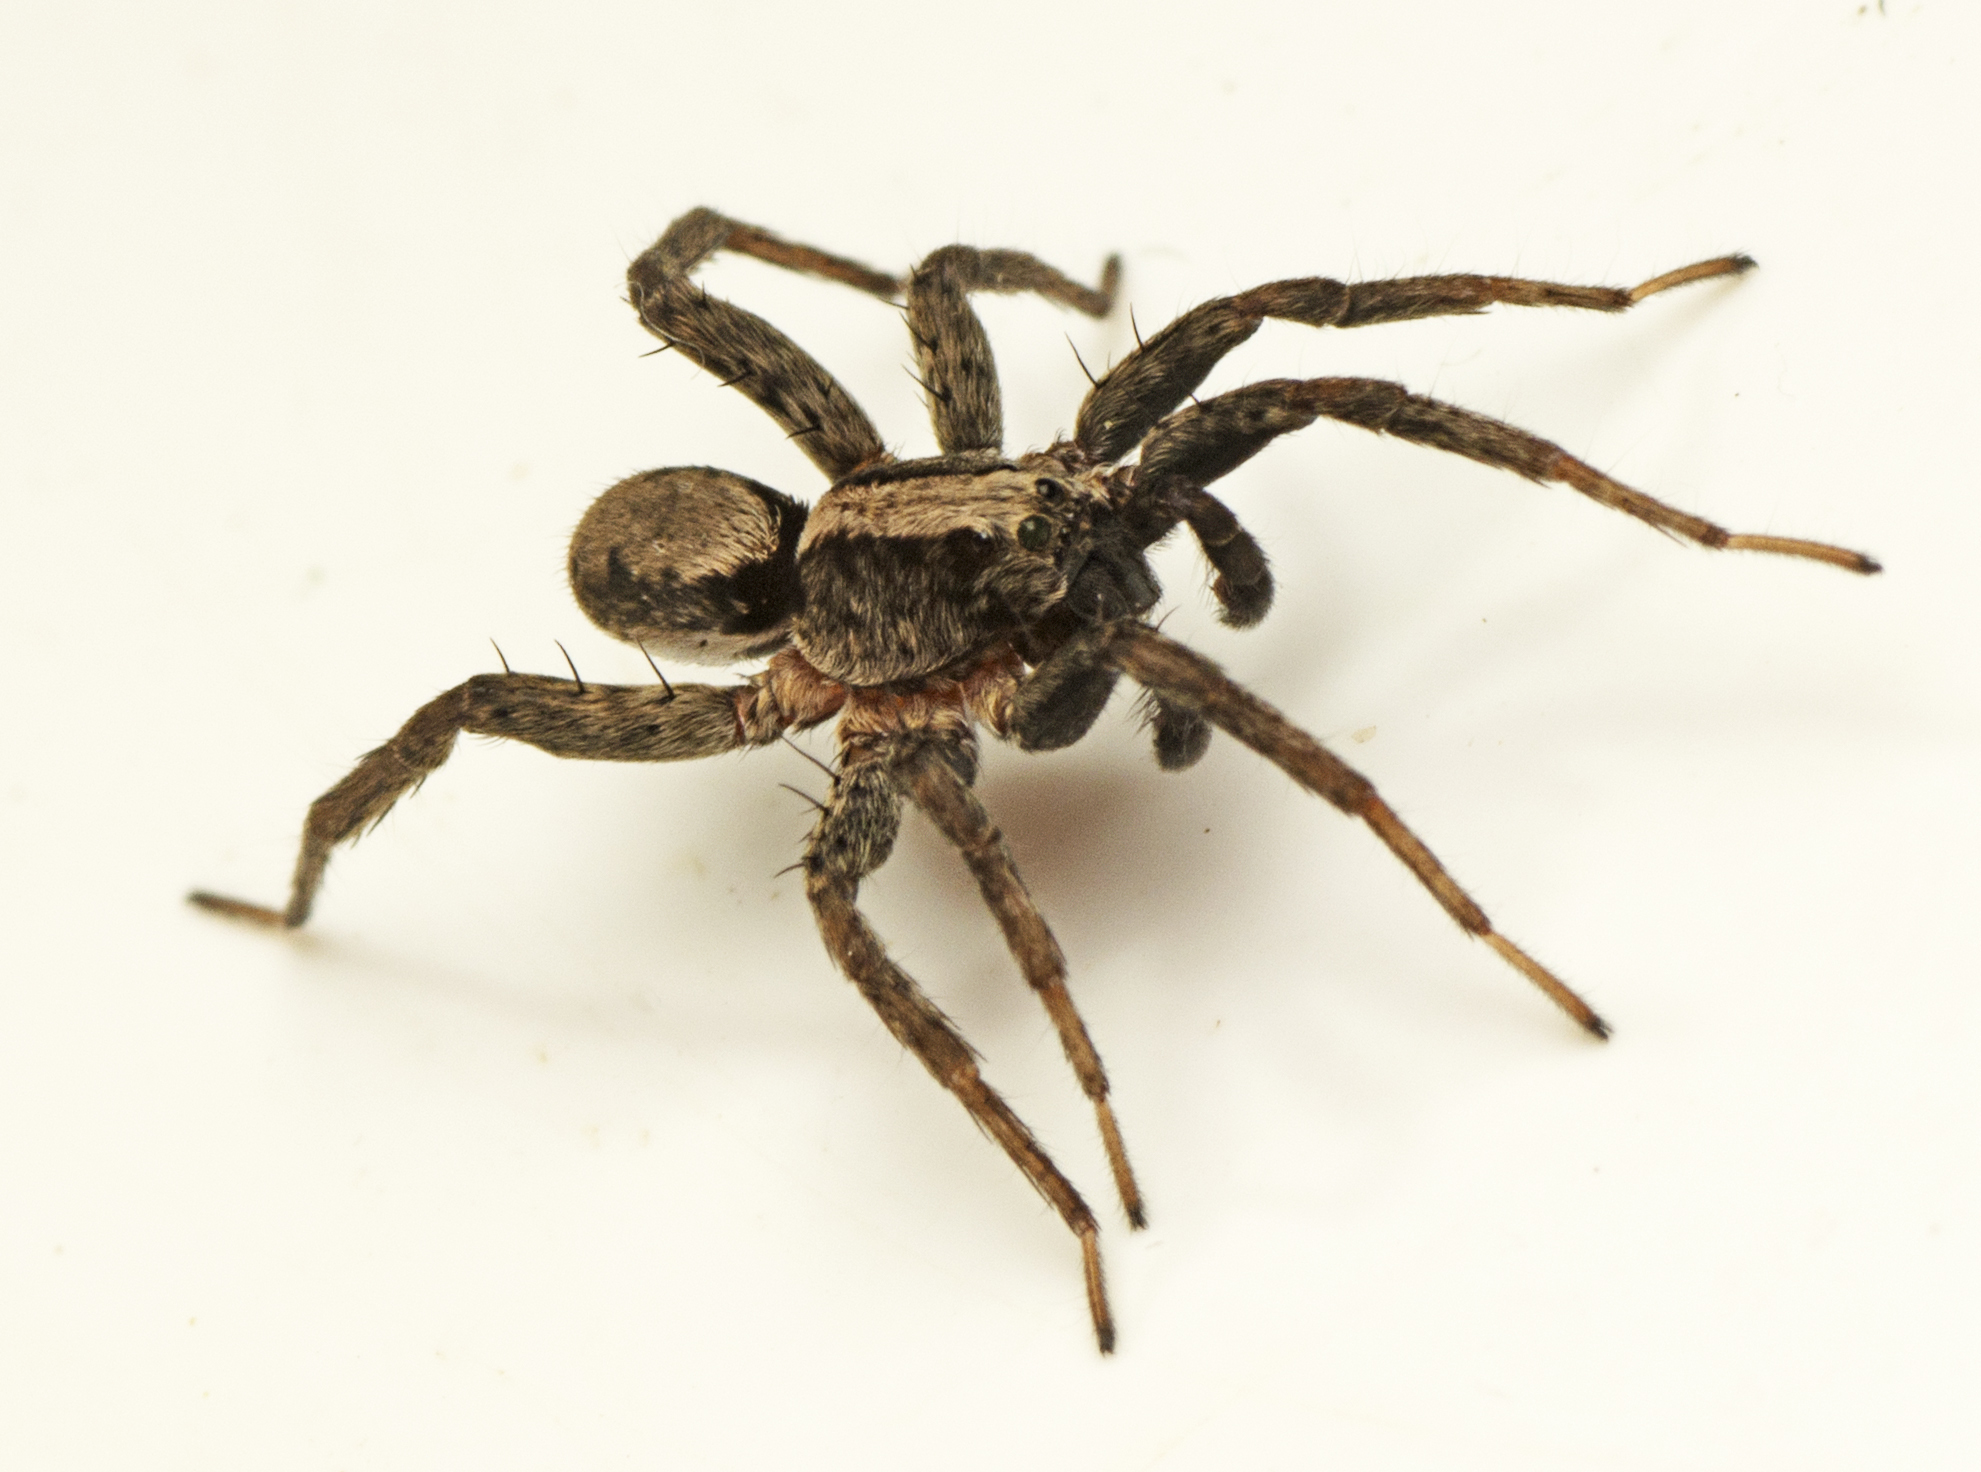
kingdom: Animalia
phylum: Arthropoda
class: Arachnida
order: Araneae
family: Lycosidae
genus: Venatrix
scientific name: Venatrix australiensis
